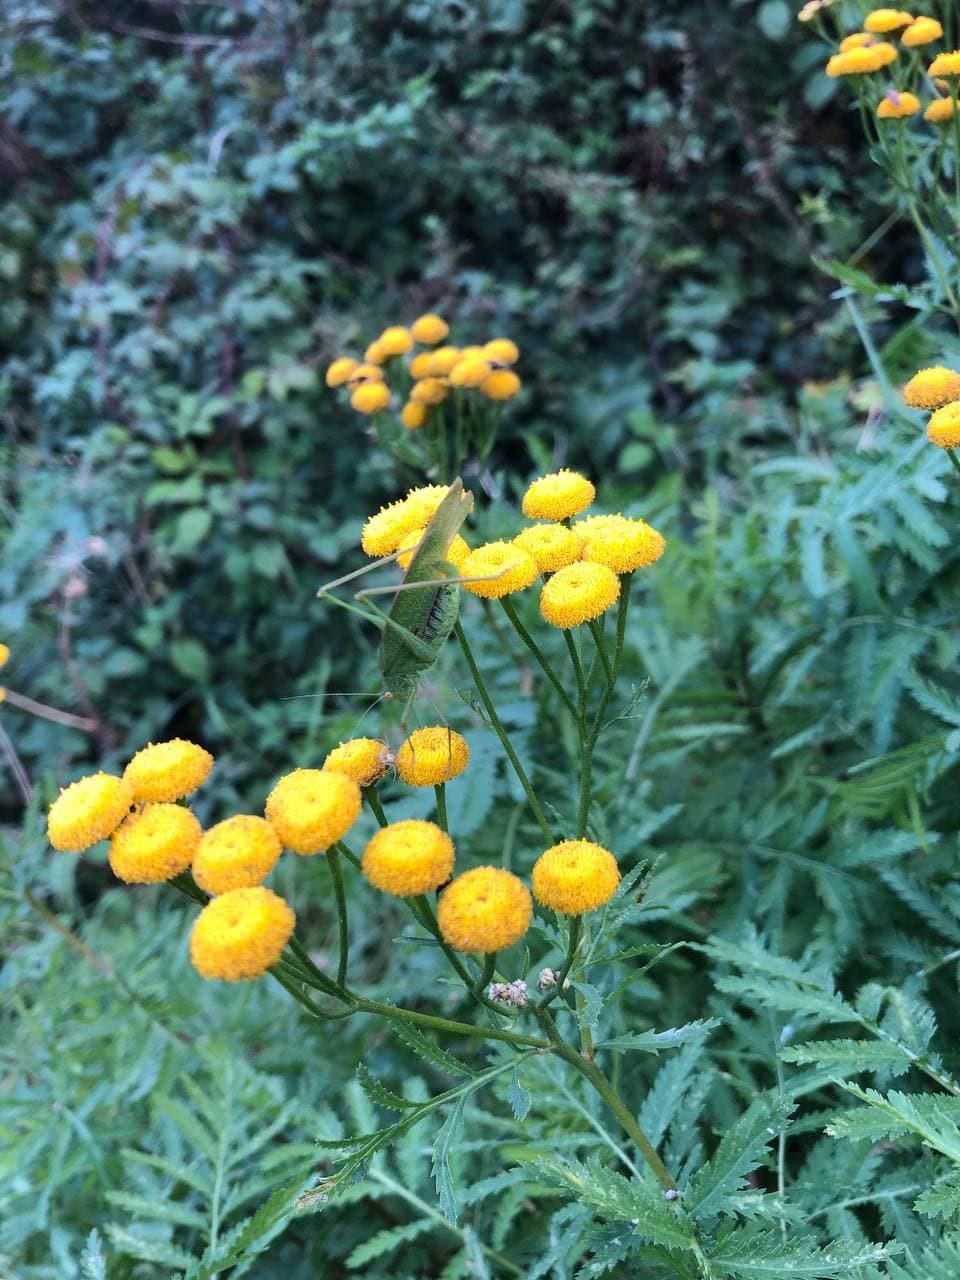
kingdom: Animalia
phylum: Arthropoda
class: Insecta
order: Orthoptera
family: Tettigoniidae
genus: Phaneroptera
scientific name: Phaneroptera nana
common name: Southern sickle bush-cricket
